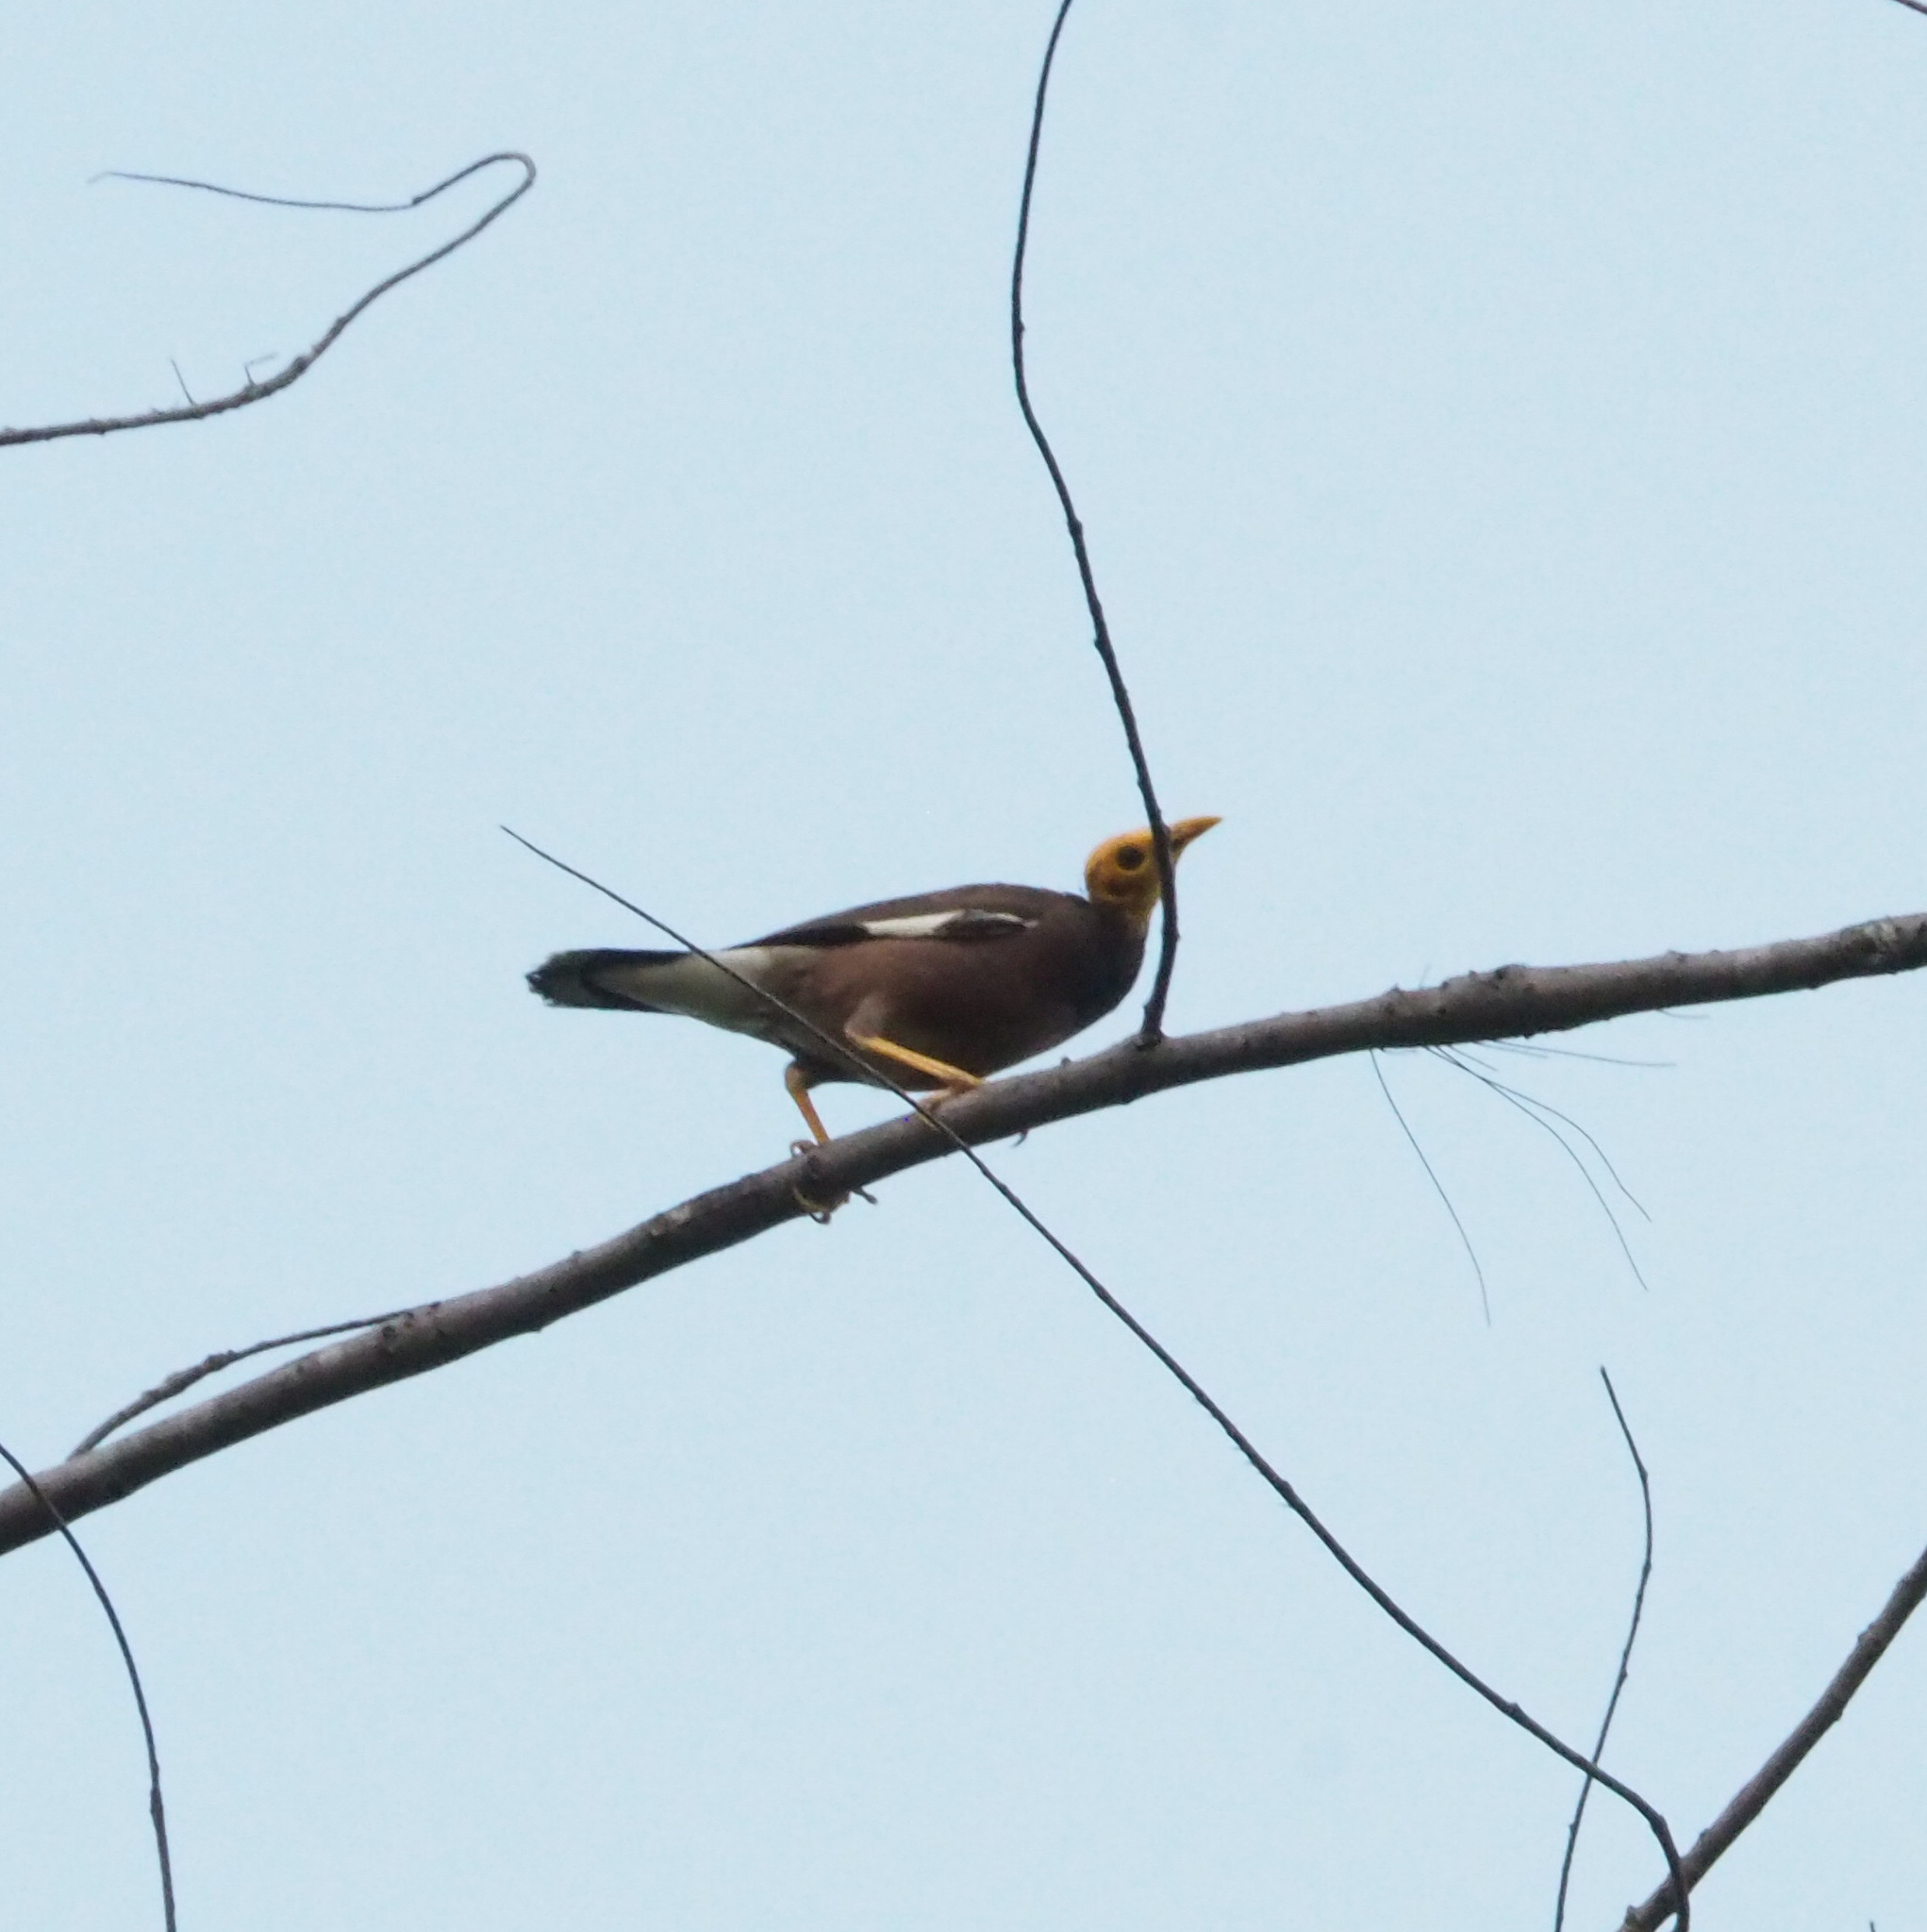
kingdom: Animalia
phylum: Chordata
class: Aves
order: Passeriformes
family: Sturnidae
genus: Acridotheres
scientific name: Acridotheres tristis
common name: Common myna
